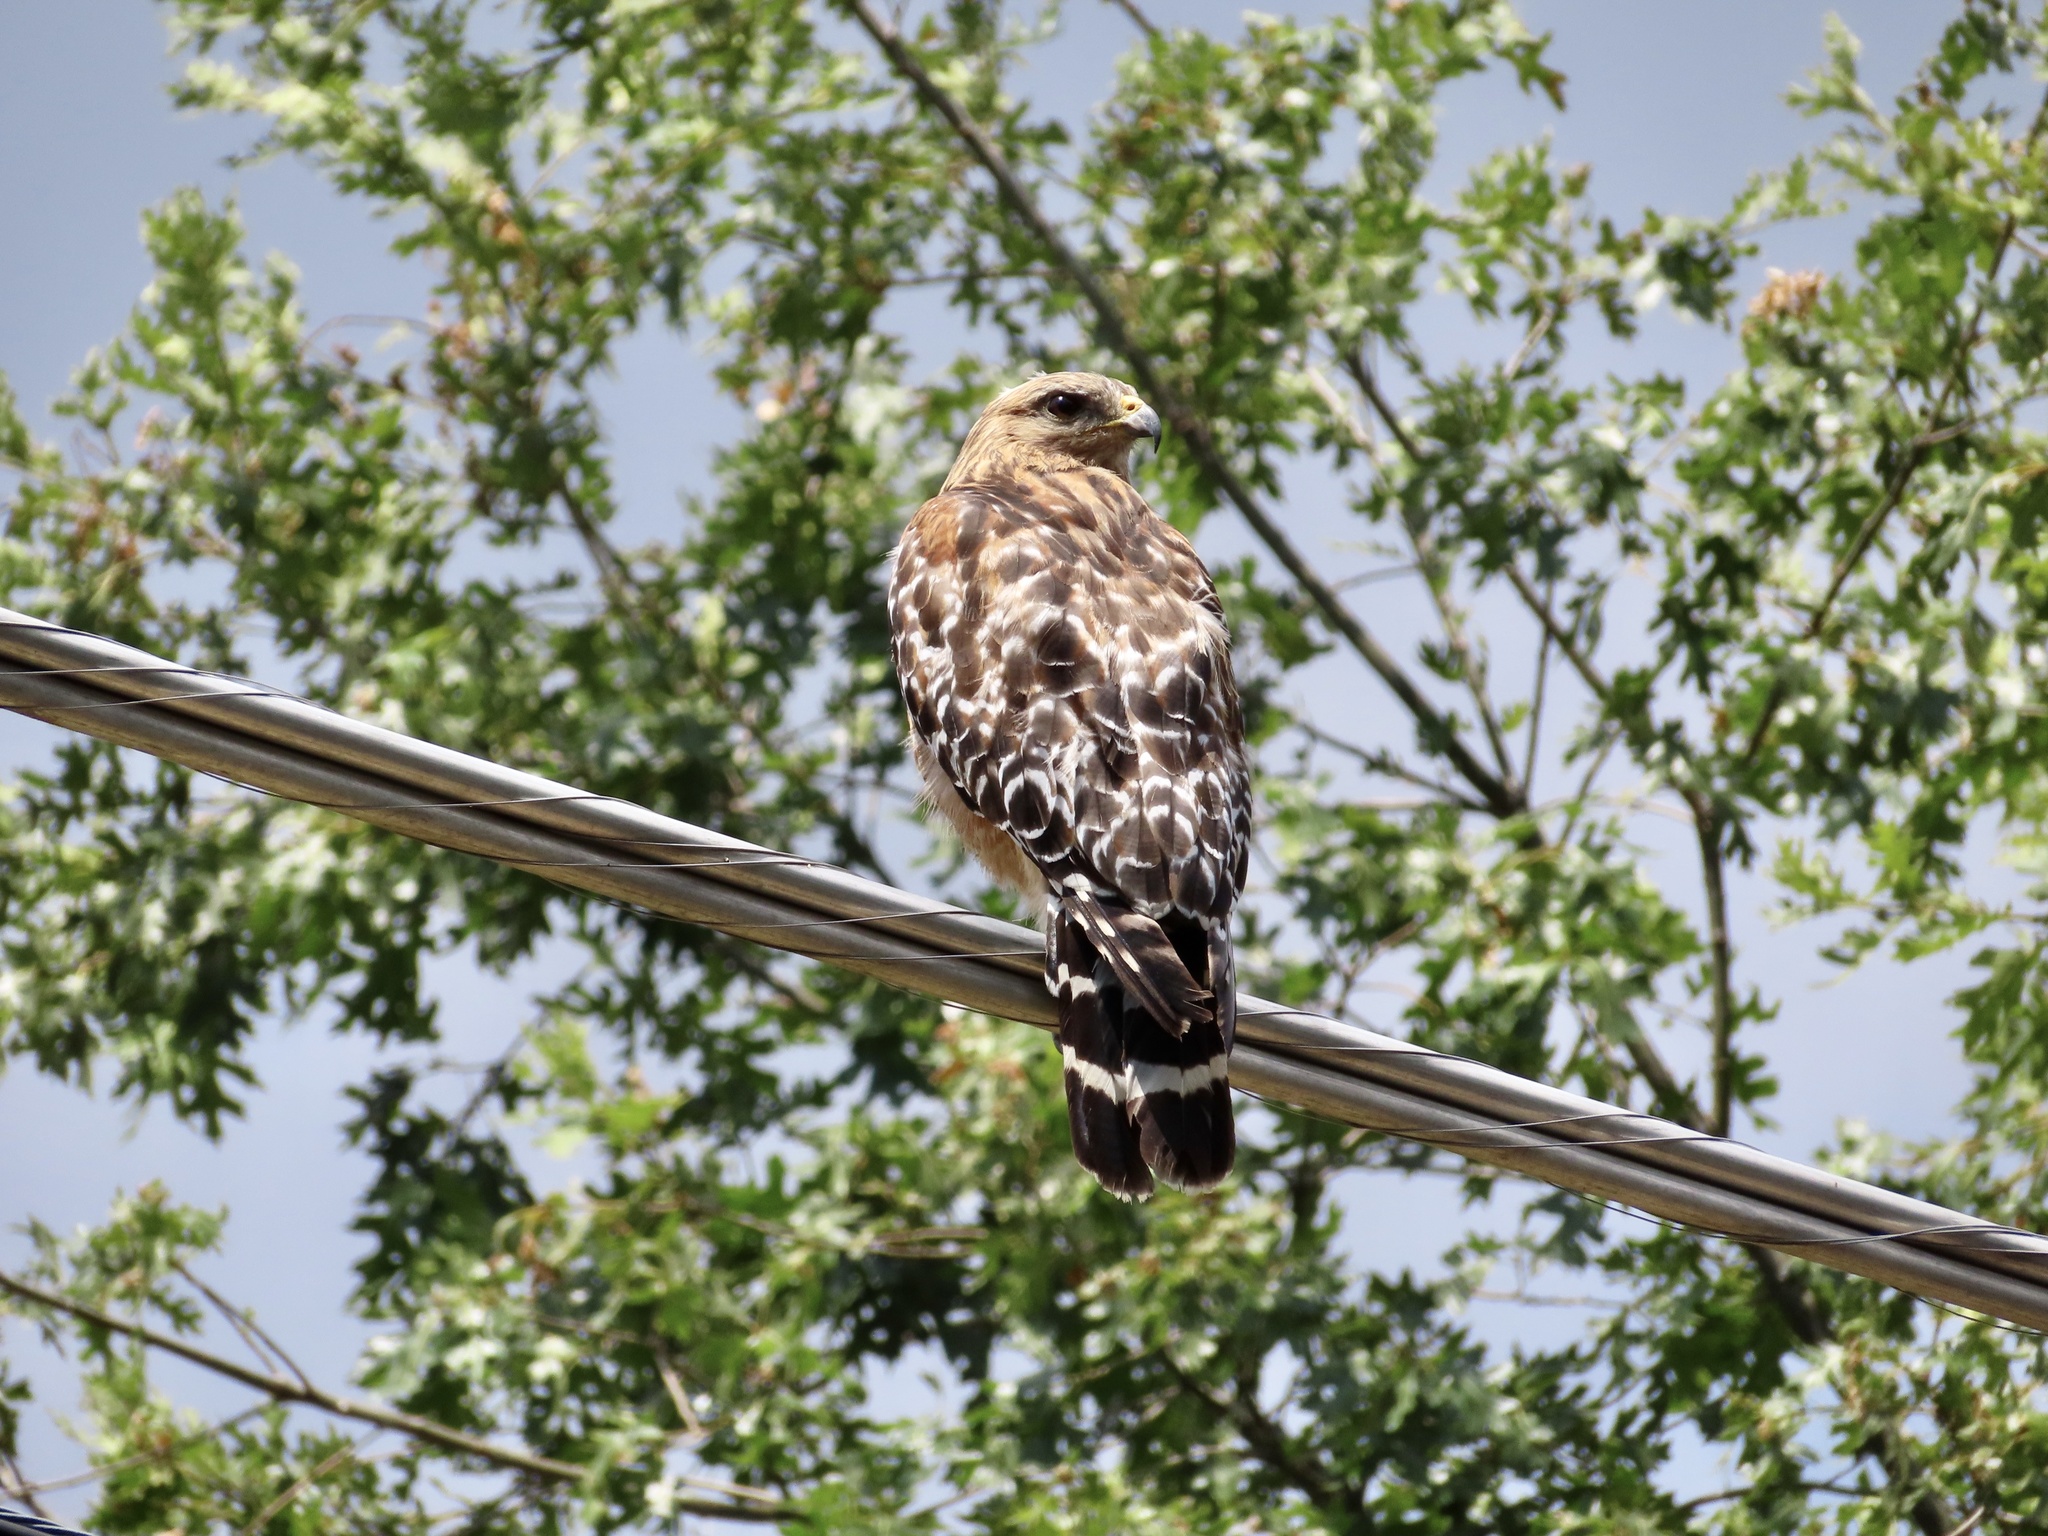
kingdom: Animalia
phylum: Chordata
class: Aves
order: Accipitriformes
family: Accipitridae
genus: Buteo
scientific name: Buteo lineatus
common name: Red-shouldered hawk
